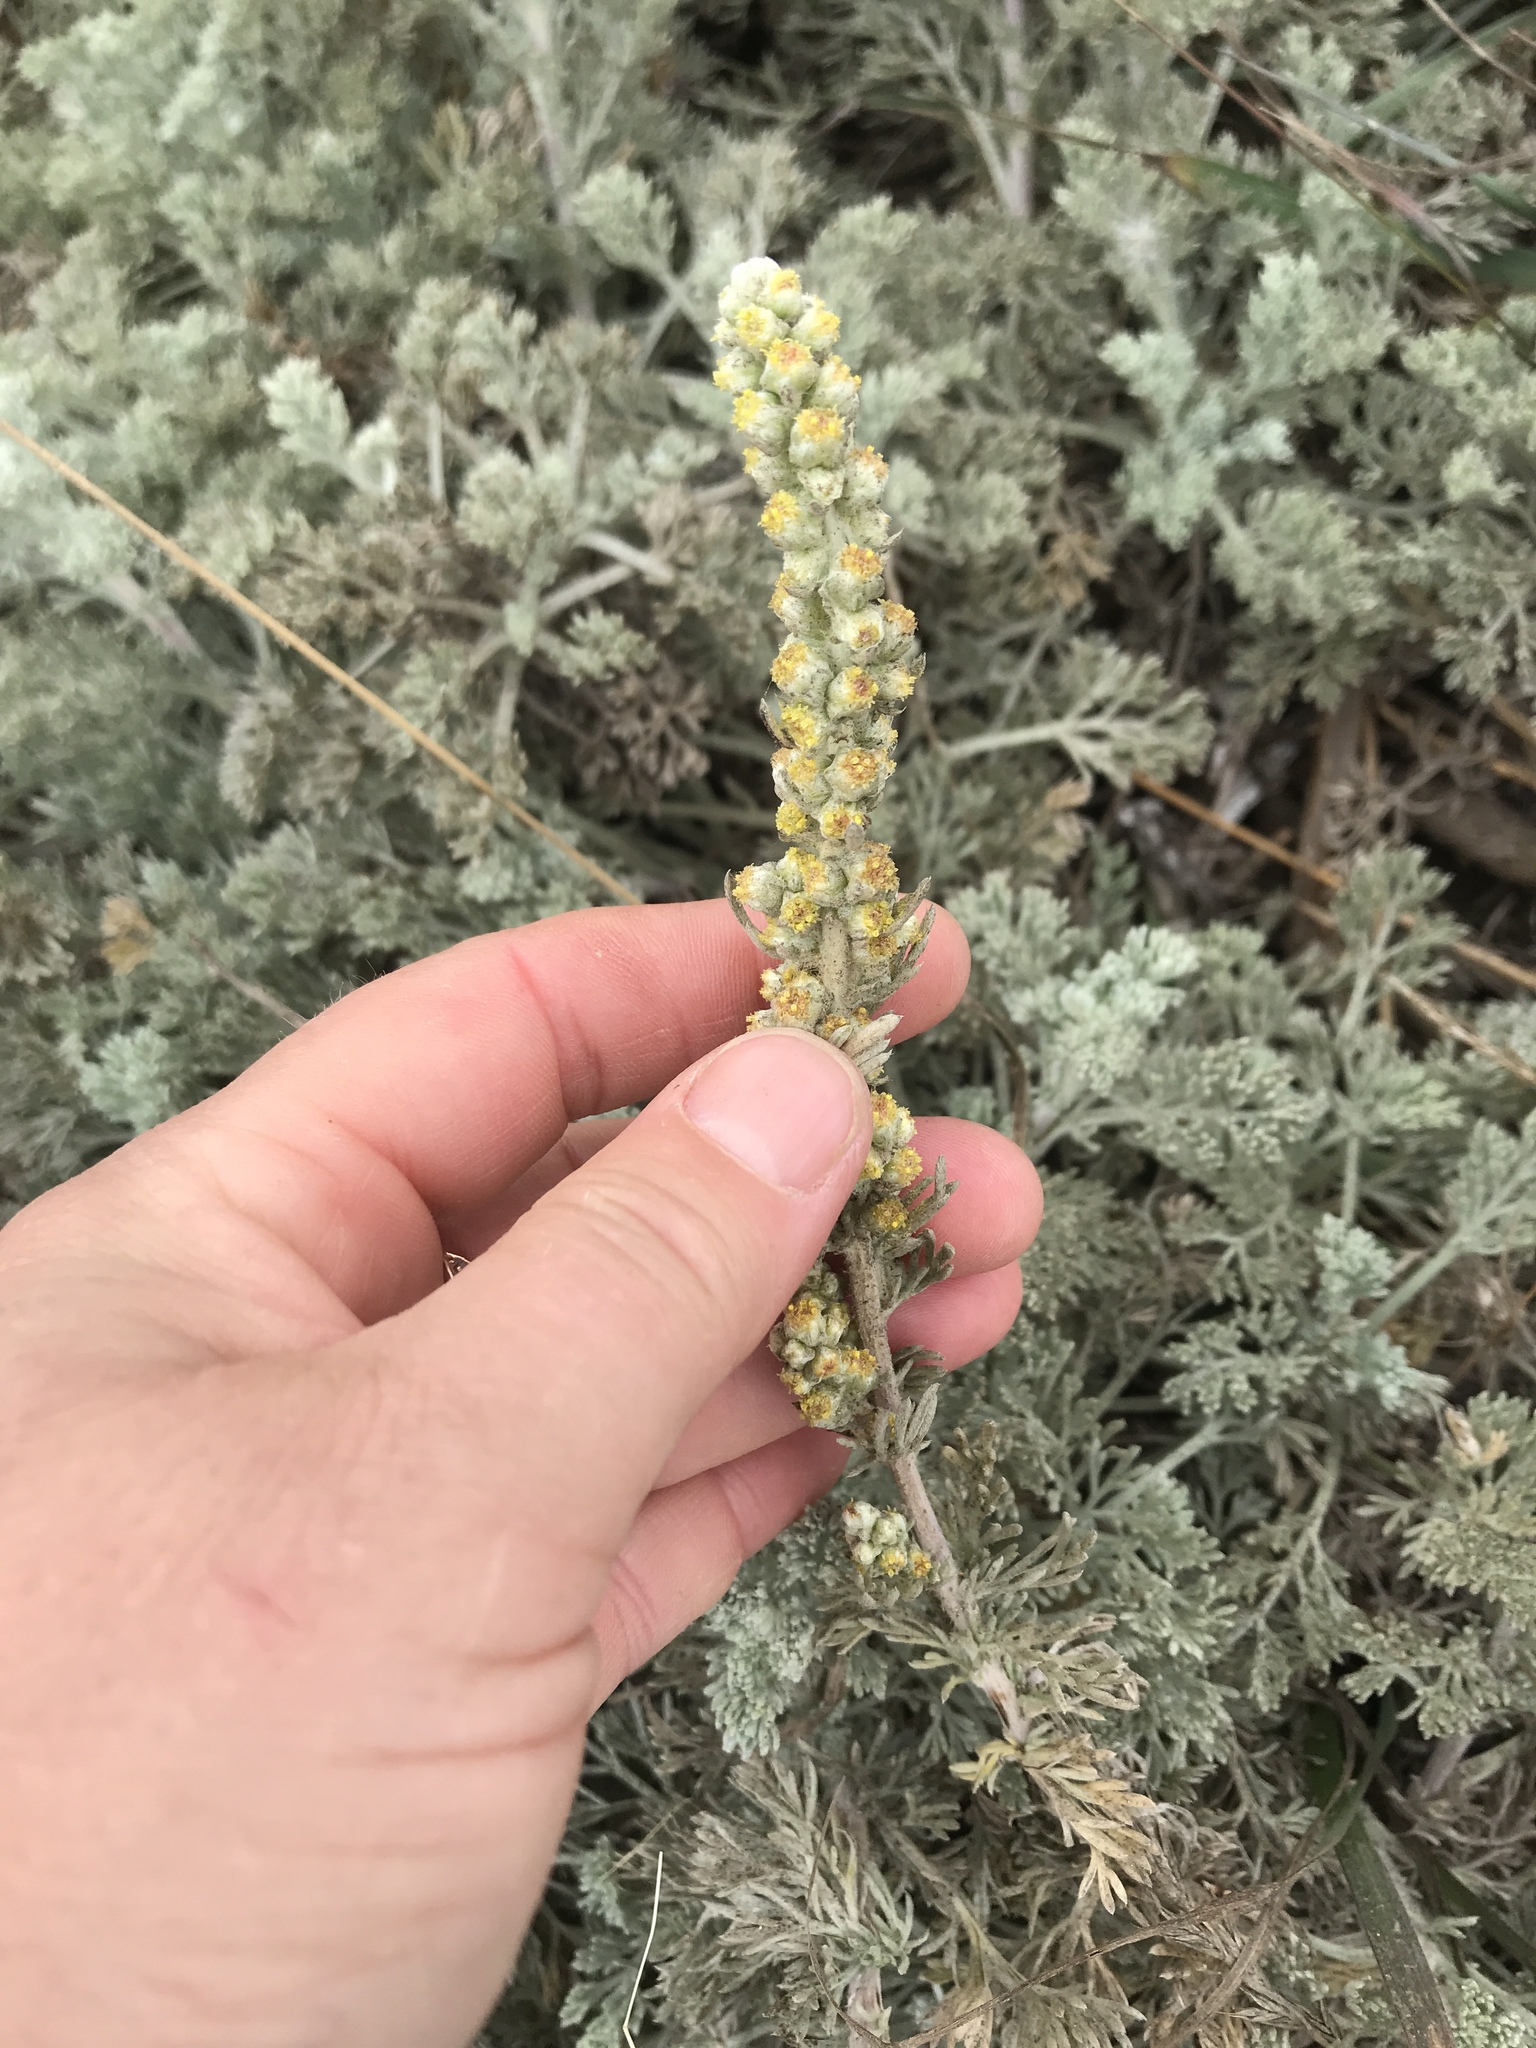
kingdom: Plantae
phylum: Tracheophyta
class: Magnoliopsida
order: Asterales
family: Asteraceae
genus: Artemisia
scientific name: Artemisia pycnocephala
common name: Coastal sagewort
